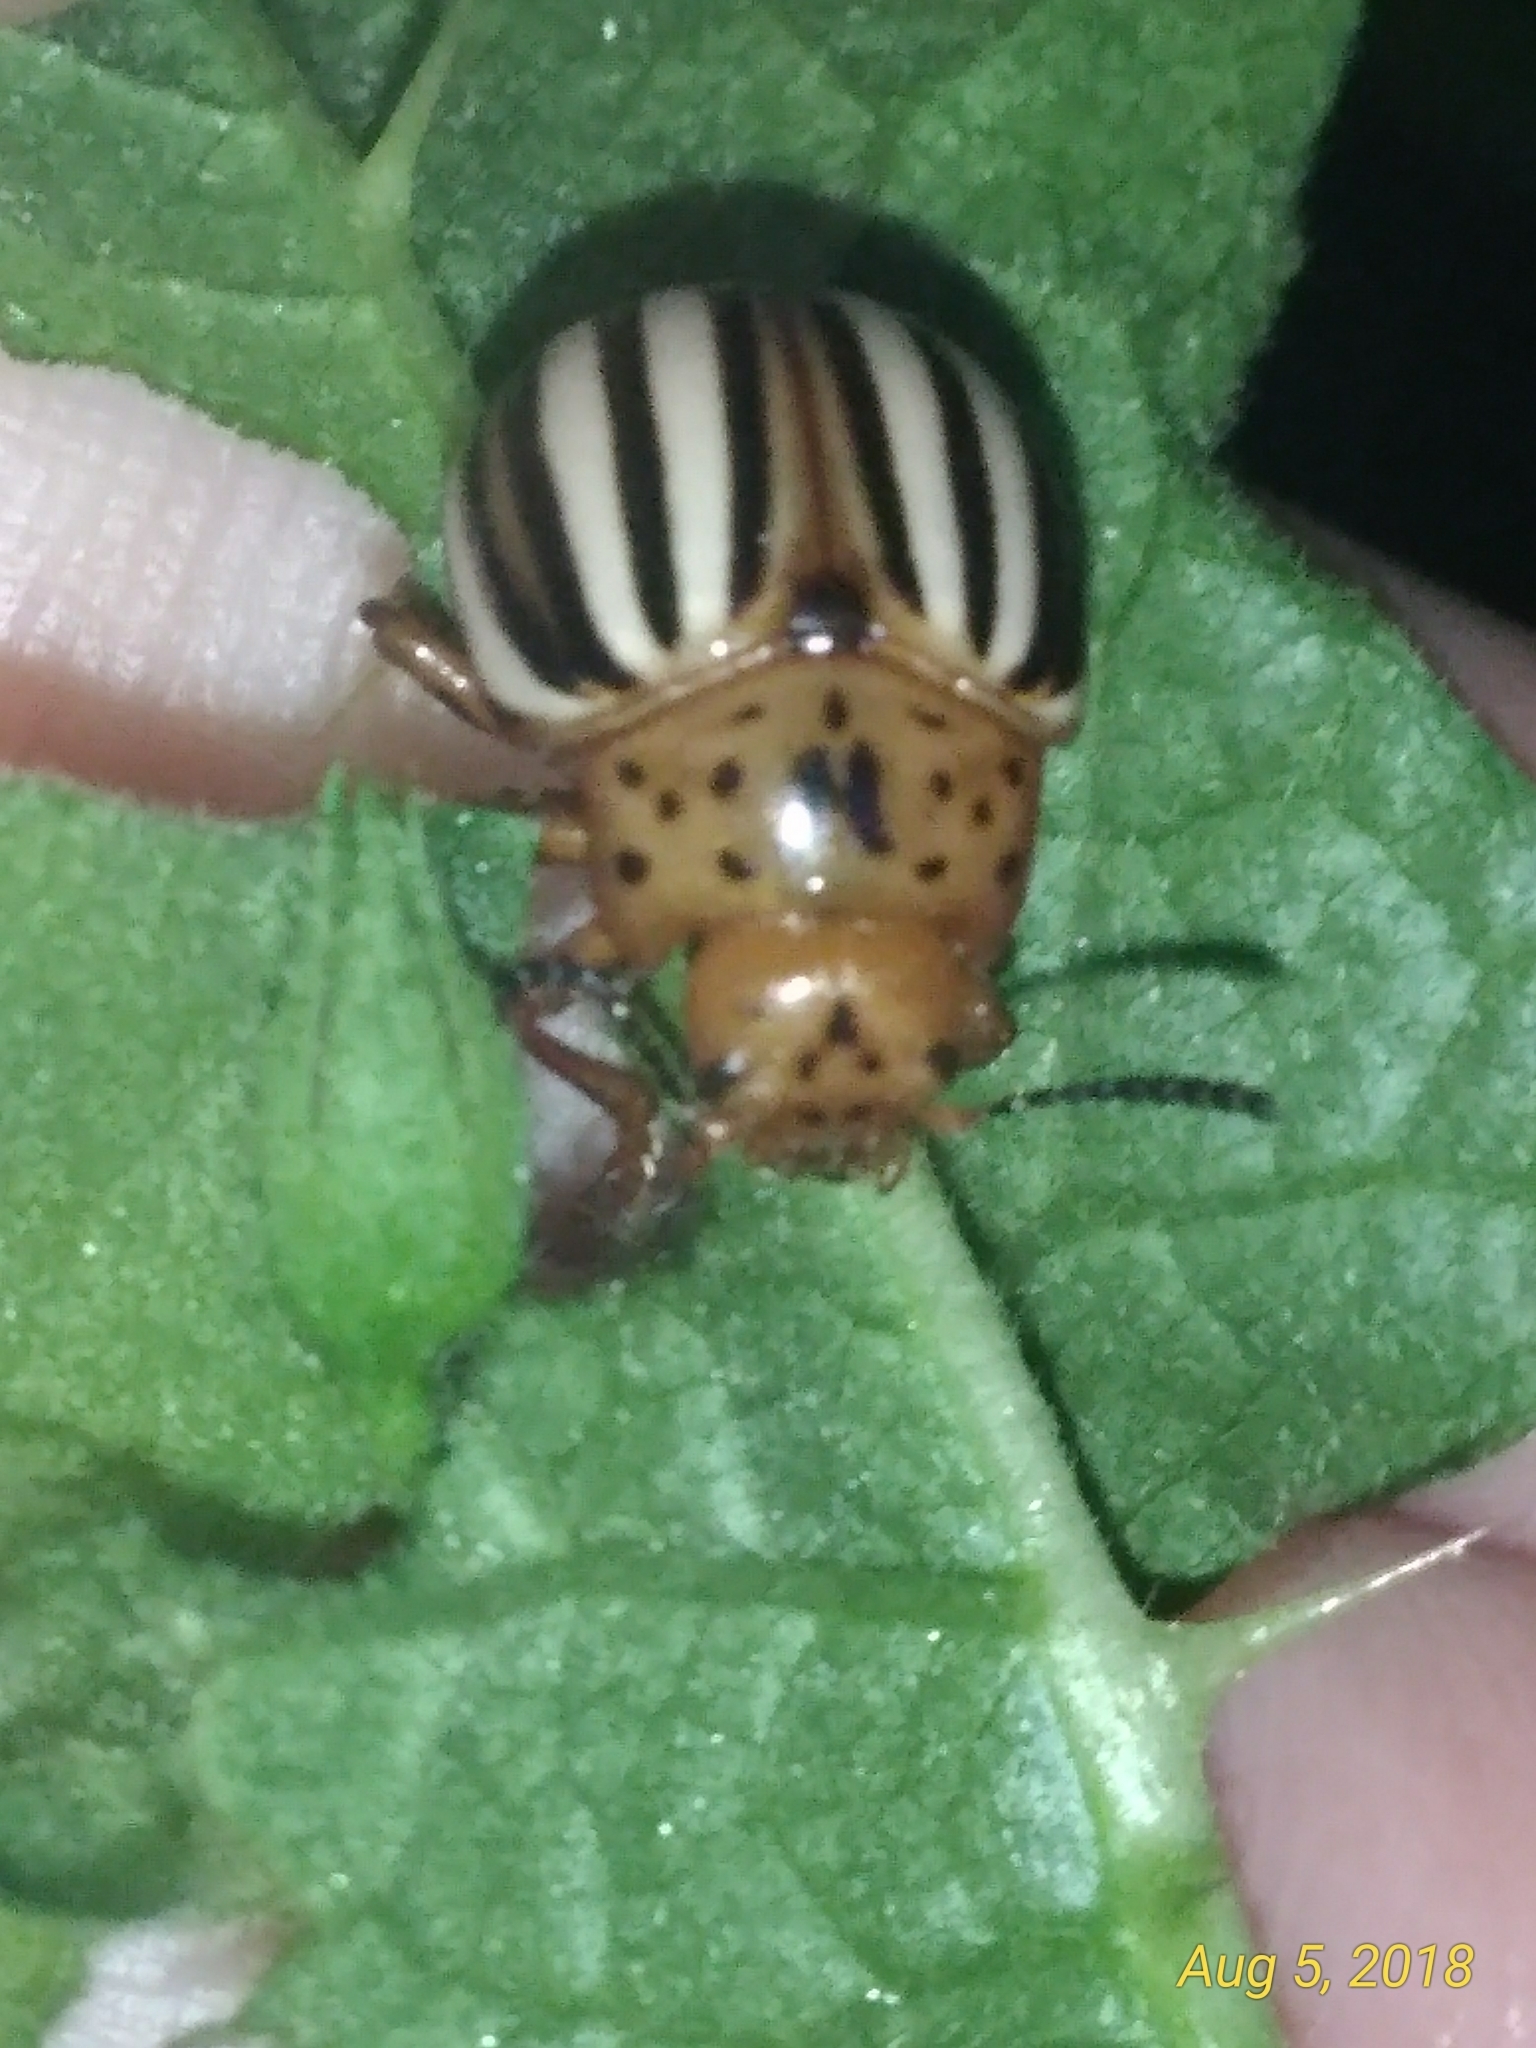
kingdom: Animalia
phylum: Arthropoda
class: Insecta
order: Coleoptera
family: Chrysomelidae
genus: Leptinotarsa
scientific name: Leptinotarsa juncta
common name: False potato beetle
